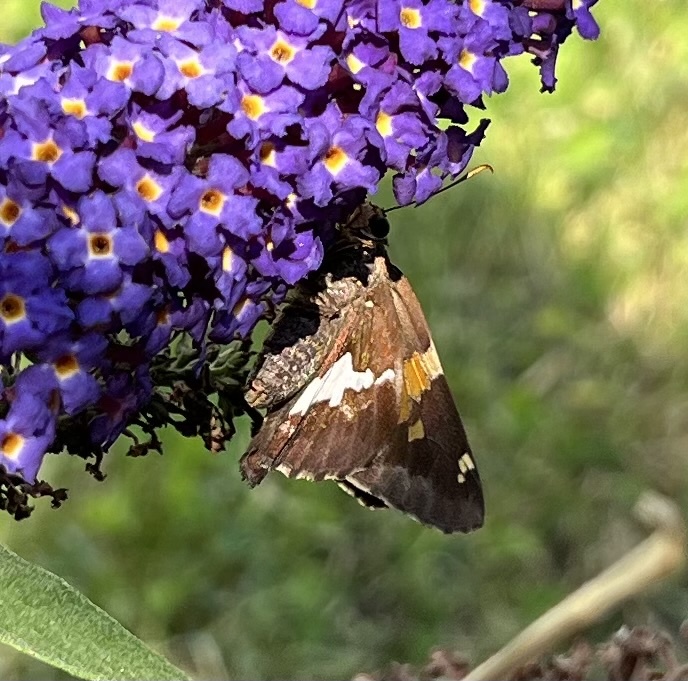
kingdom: Animalia
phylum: Arthropoda
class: Insecta
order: Lepidoptera
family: Hesperiidae
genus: Epargyreus
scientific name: Epargyreus clarus
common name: Silver-spotted skipper
